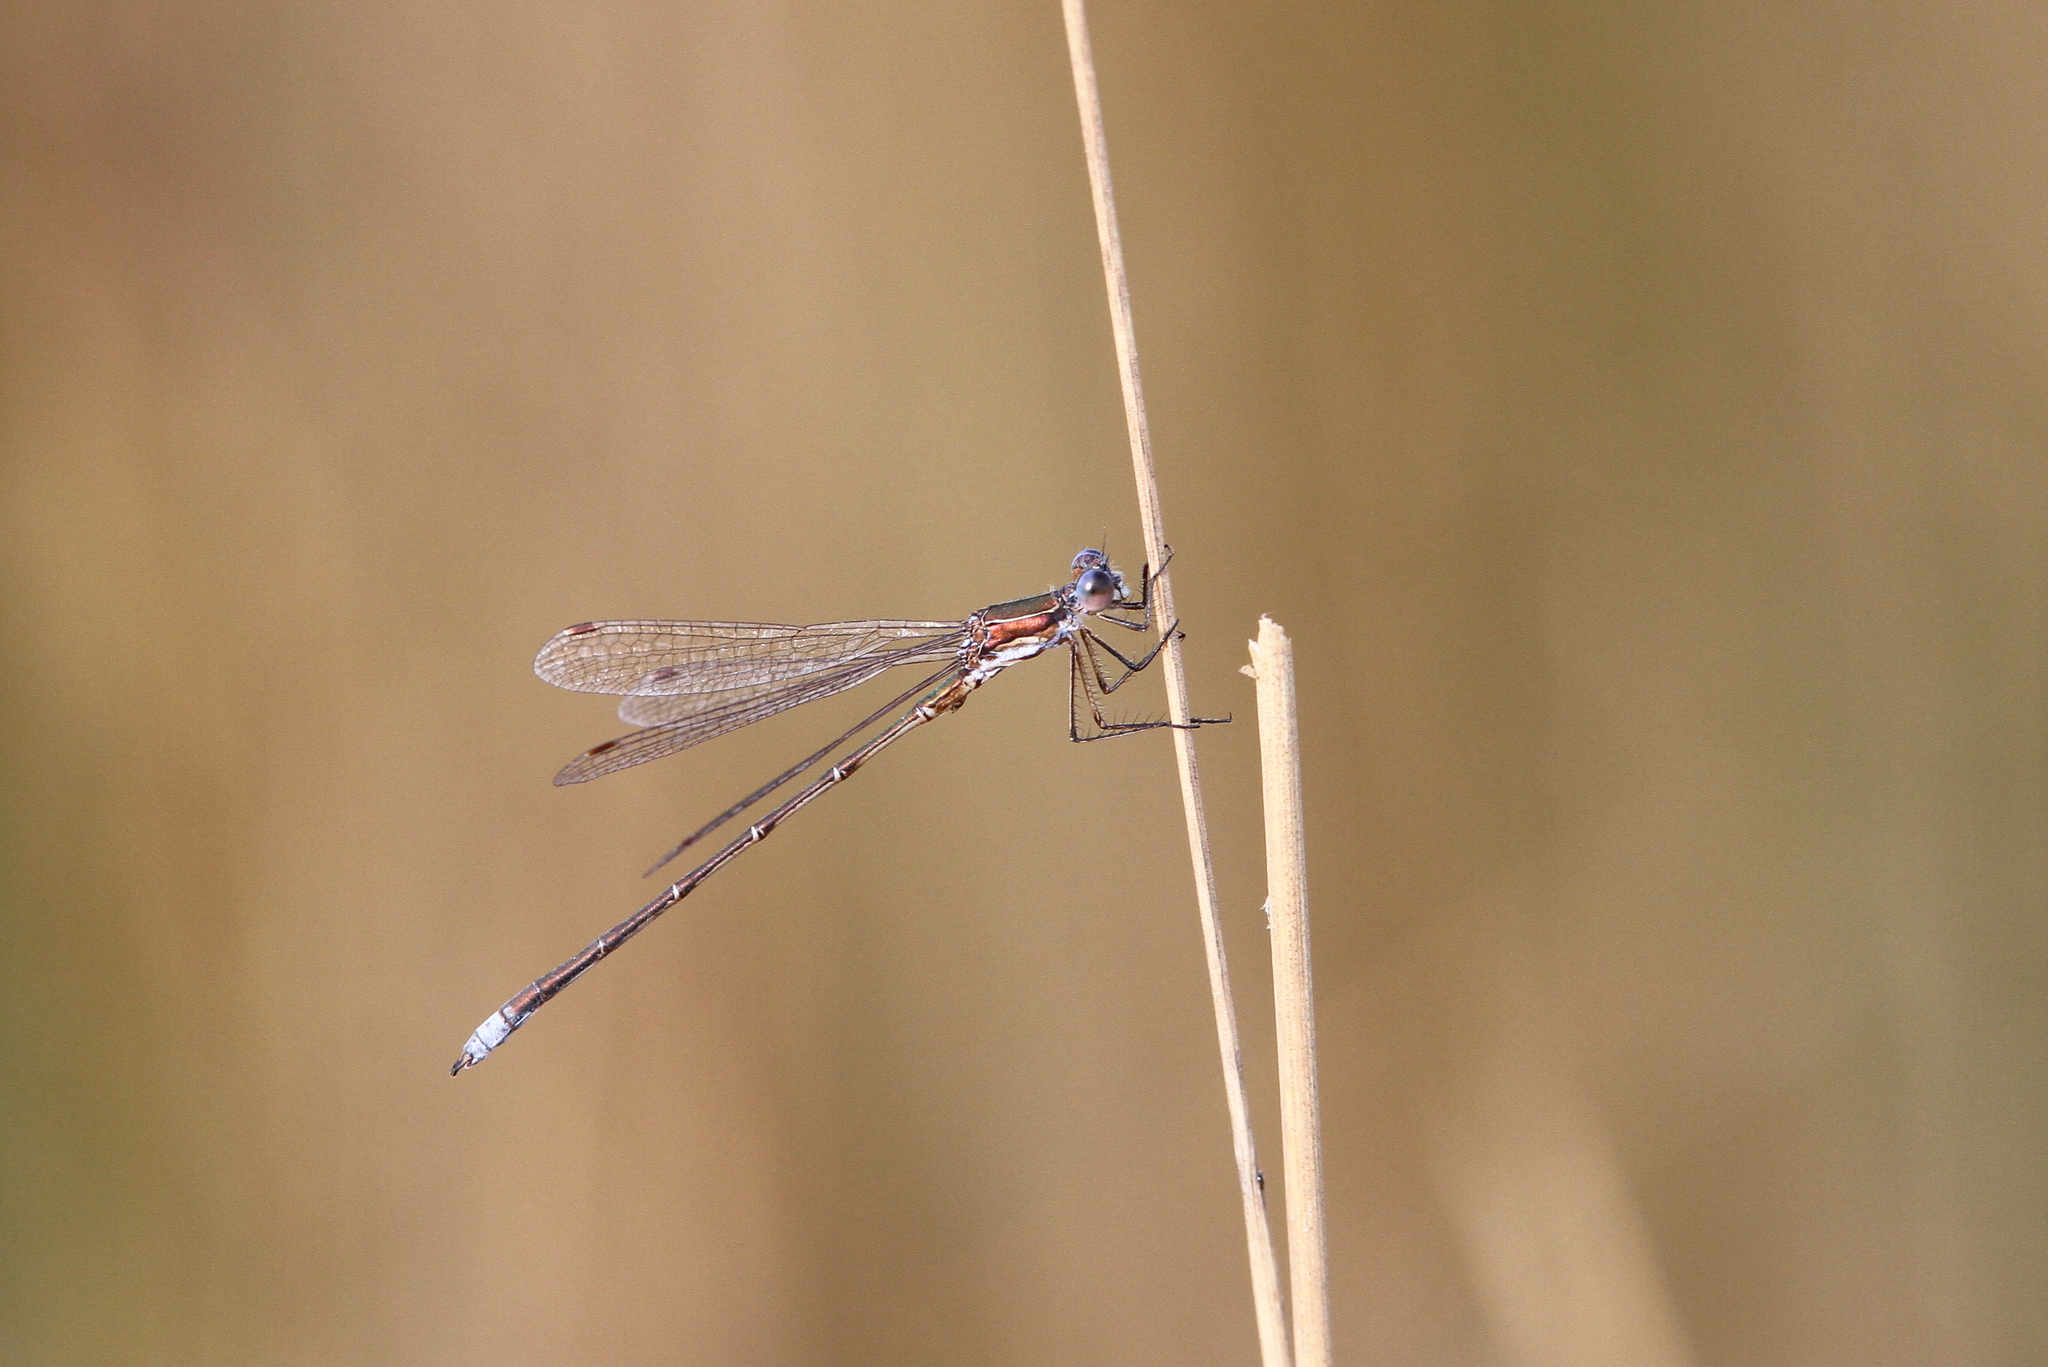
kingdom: Animalia
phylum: Arthropoda
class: Insecta
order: Odonata
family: Lestidae
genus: Lestes
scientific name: Lestes virens
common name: Small emerald spreadwing
